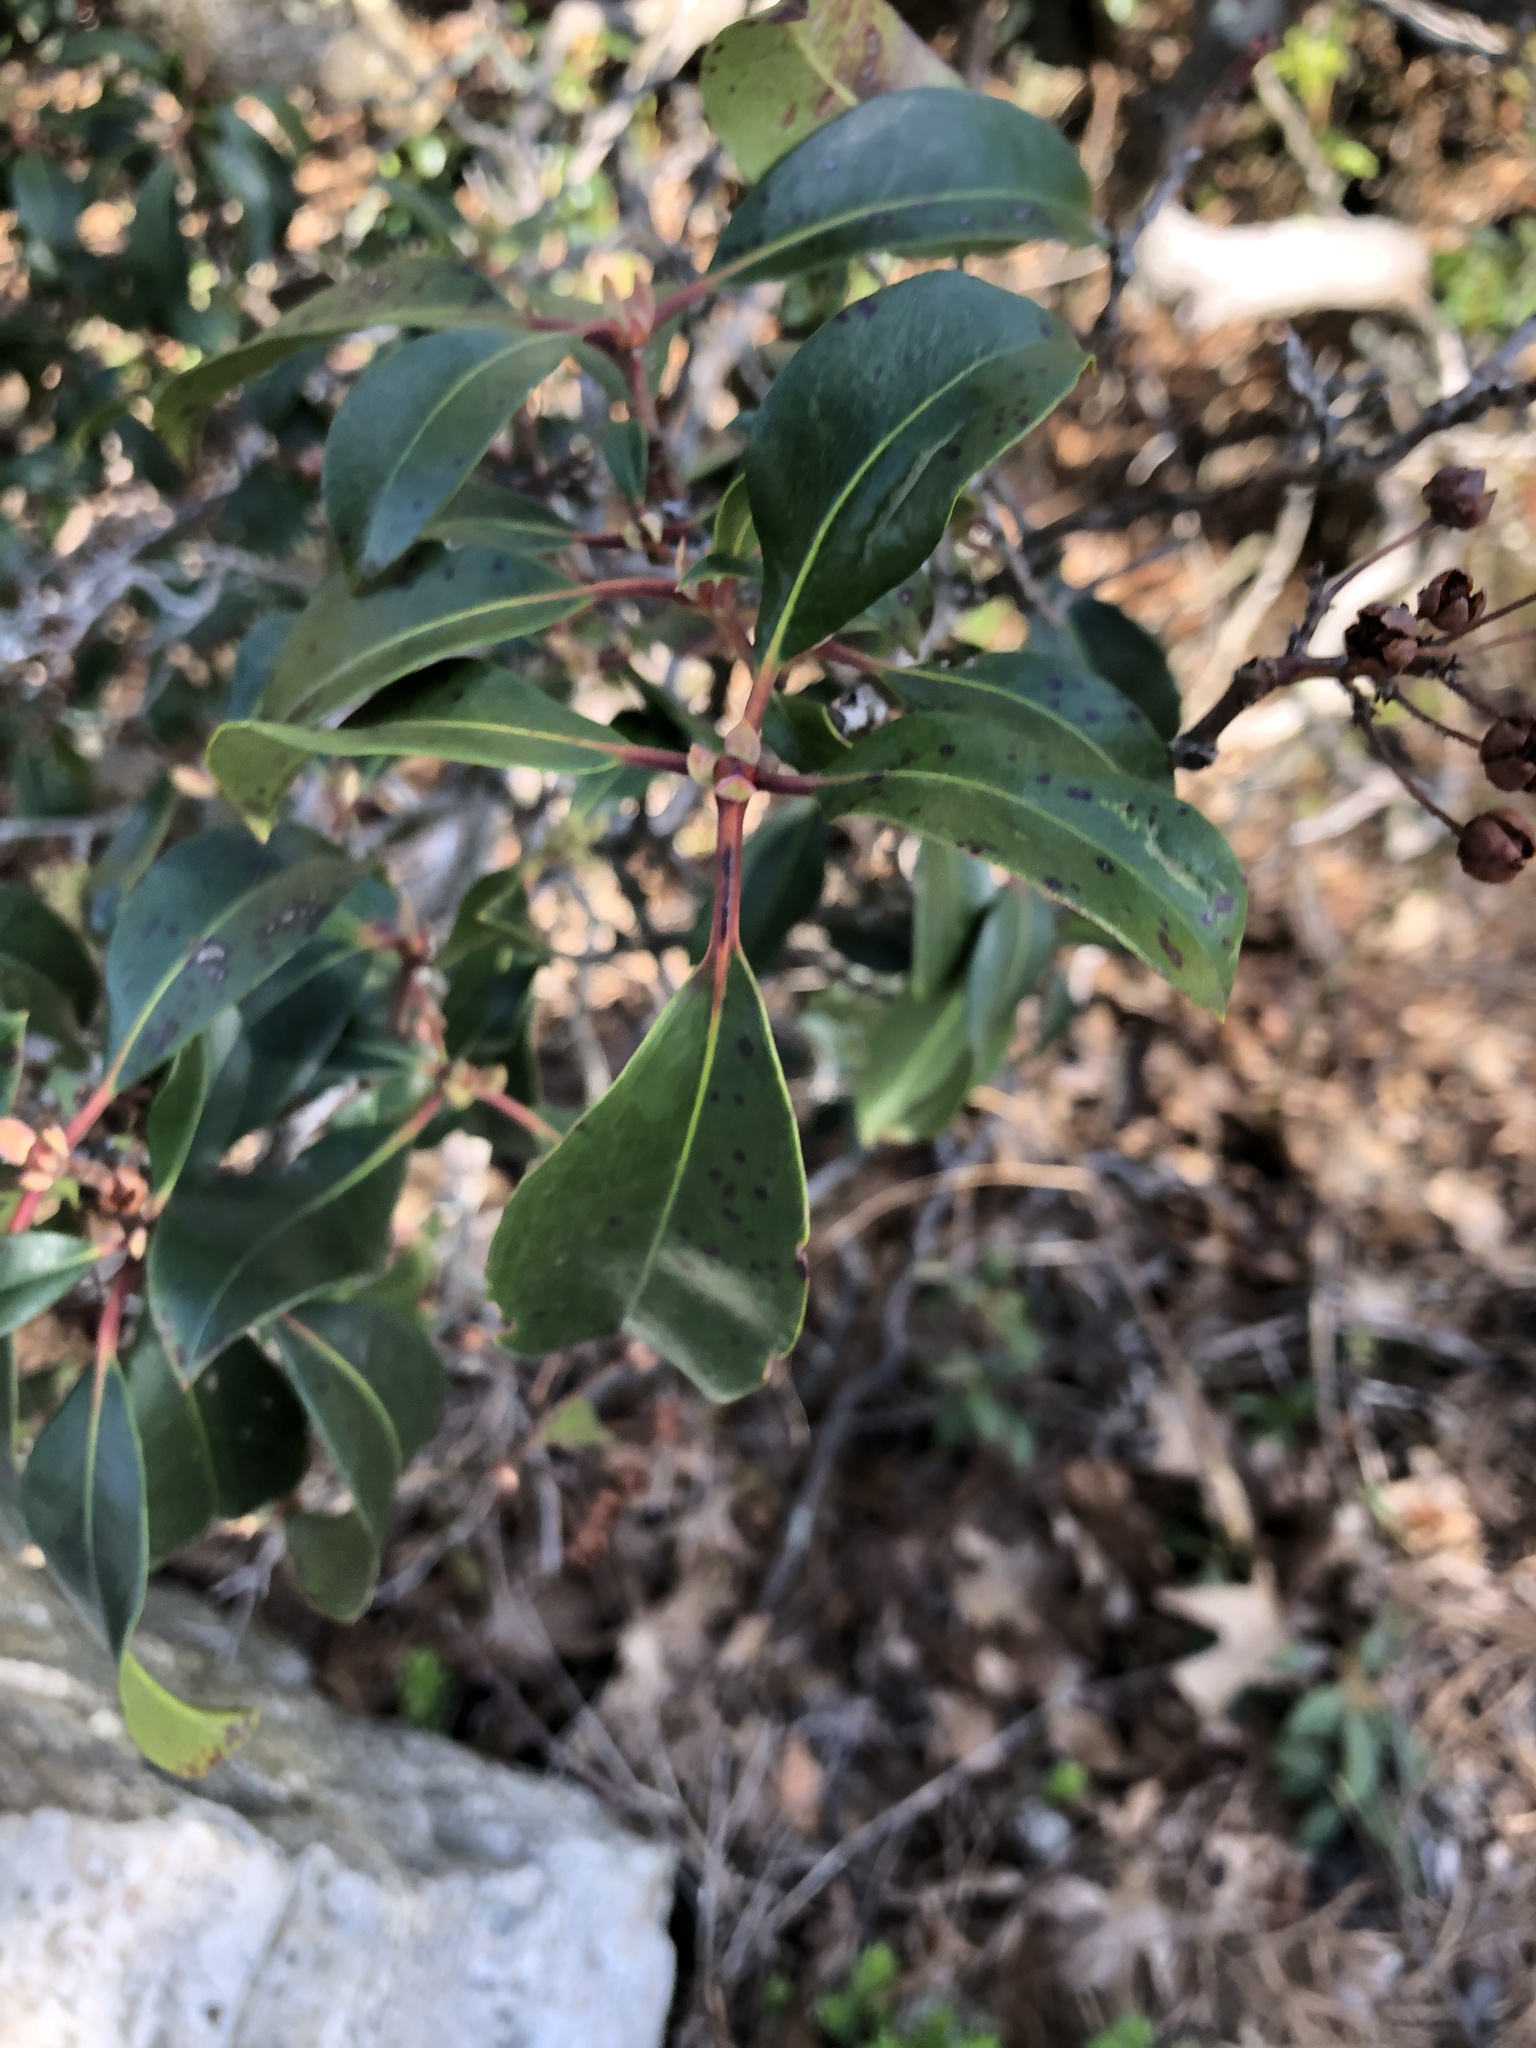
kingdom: Plantae
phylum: Tracheophyta
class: Magnoliopsida
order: Ericales
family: Ericaceae
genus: Kalmia
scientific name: Kalmia latifolia
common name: Mountain-laurel
